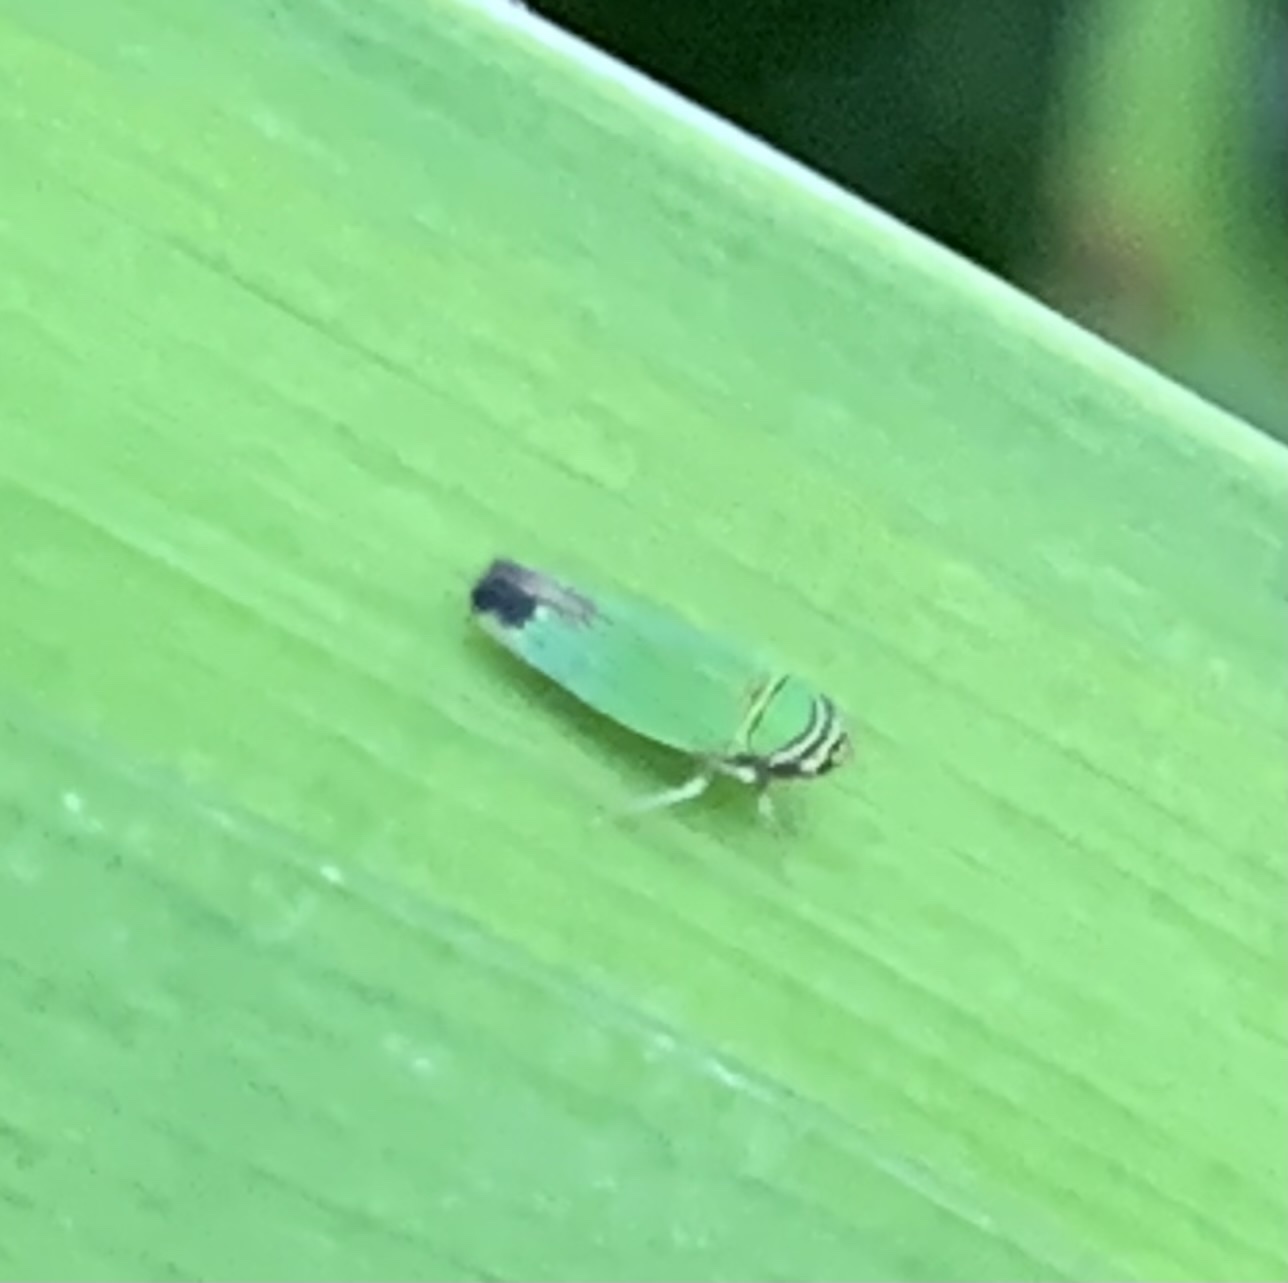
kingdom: Animalia
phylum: Arthropoda
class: Insecta
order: Hemiptera
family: Cicadellidae
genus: Tylozygus
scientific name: Tylozygus geometricus
